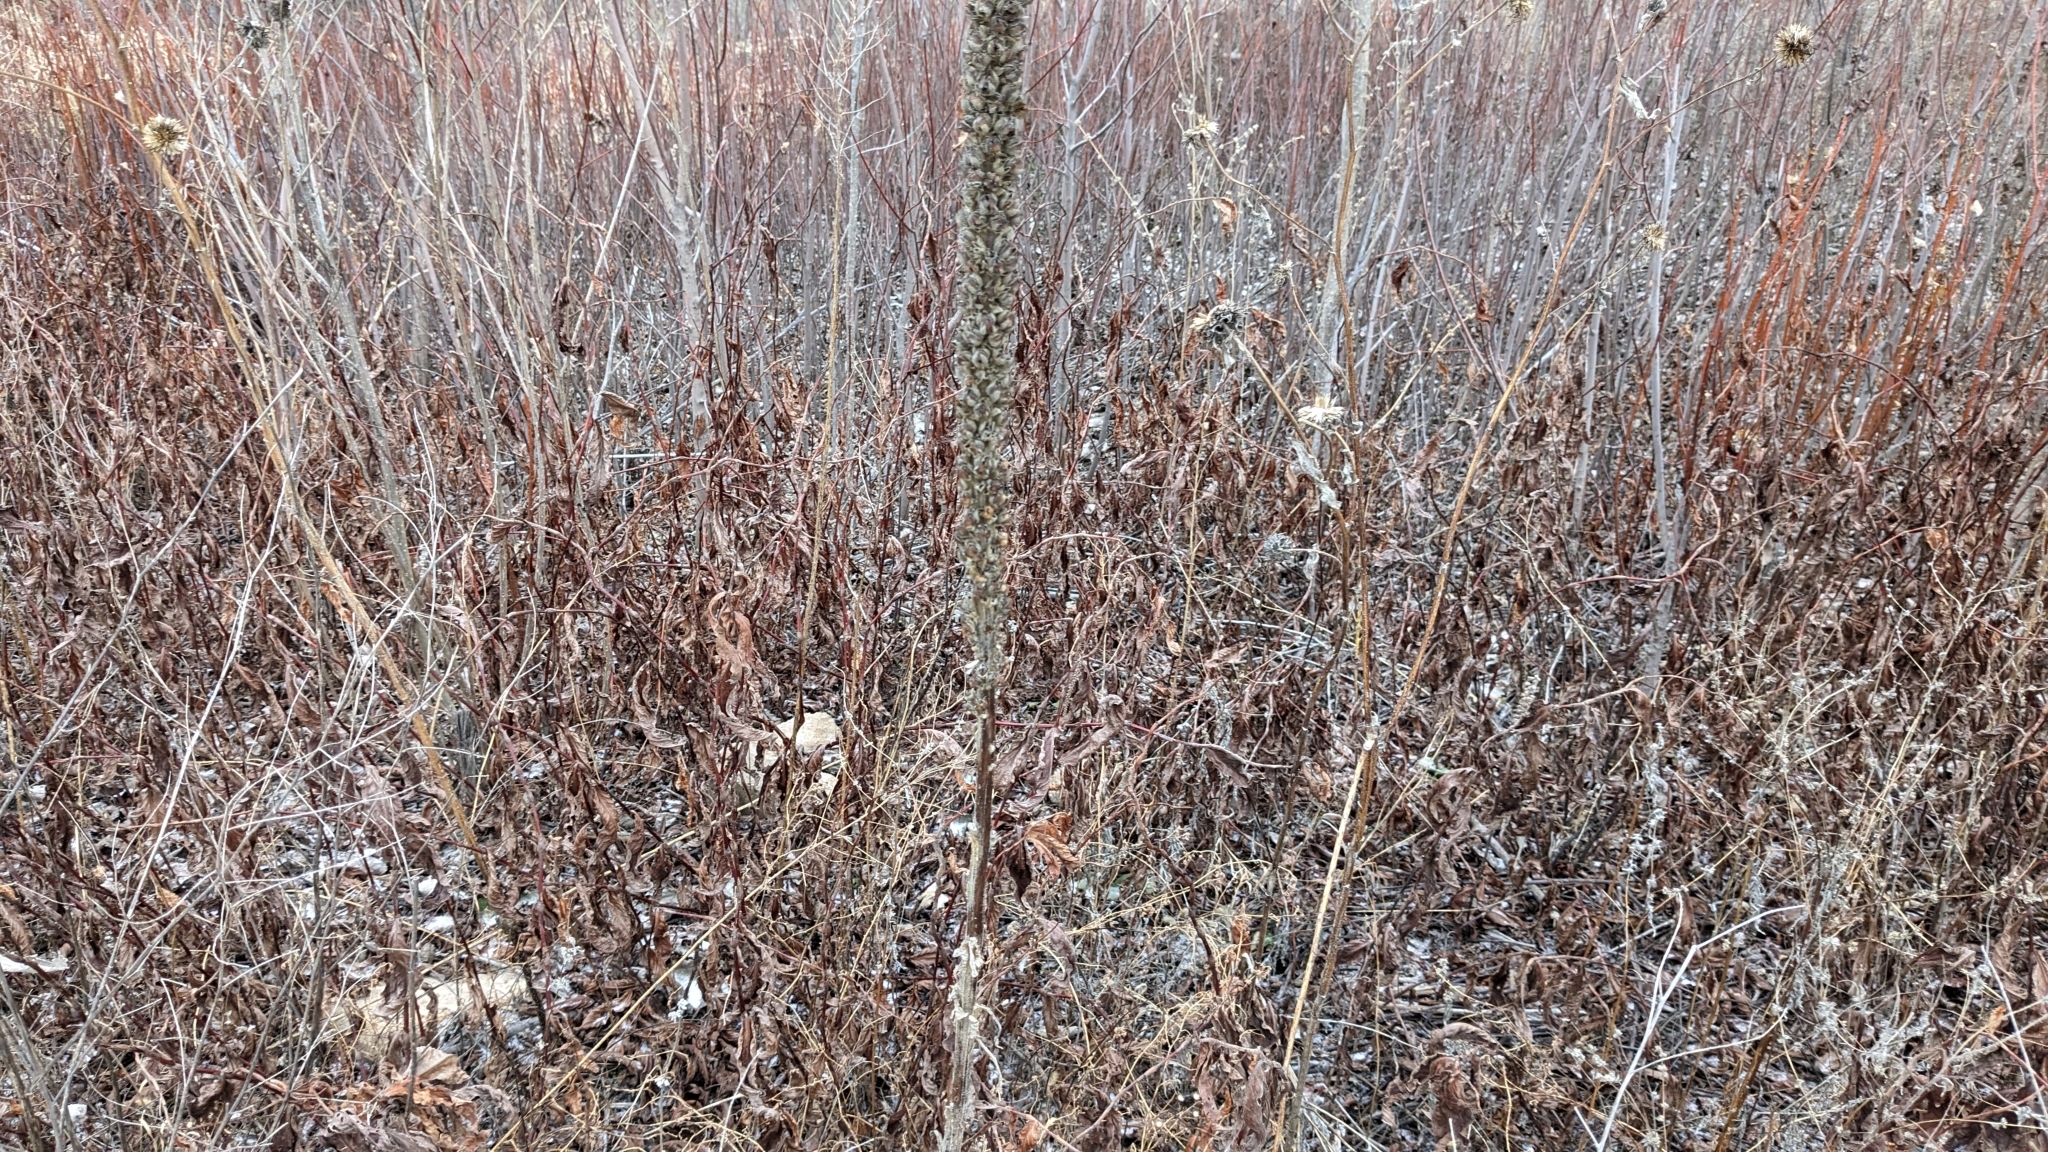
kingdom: Plantae
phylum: Tracheophyta
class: Magnoliopsida
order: Lamiales
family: Scrophulariaceae
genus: Verbascum
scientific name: Verbascum thapsus
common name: Common mullein
